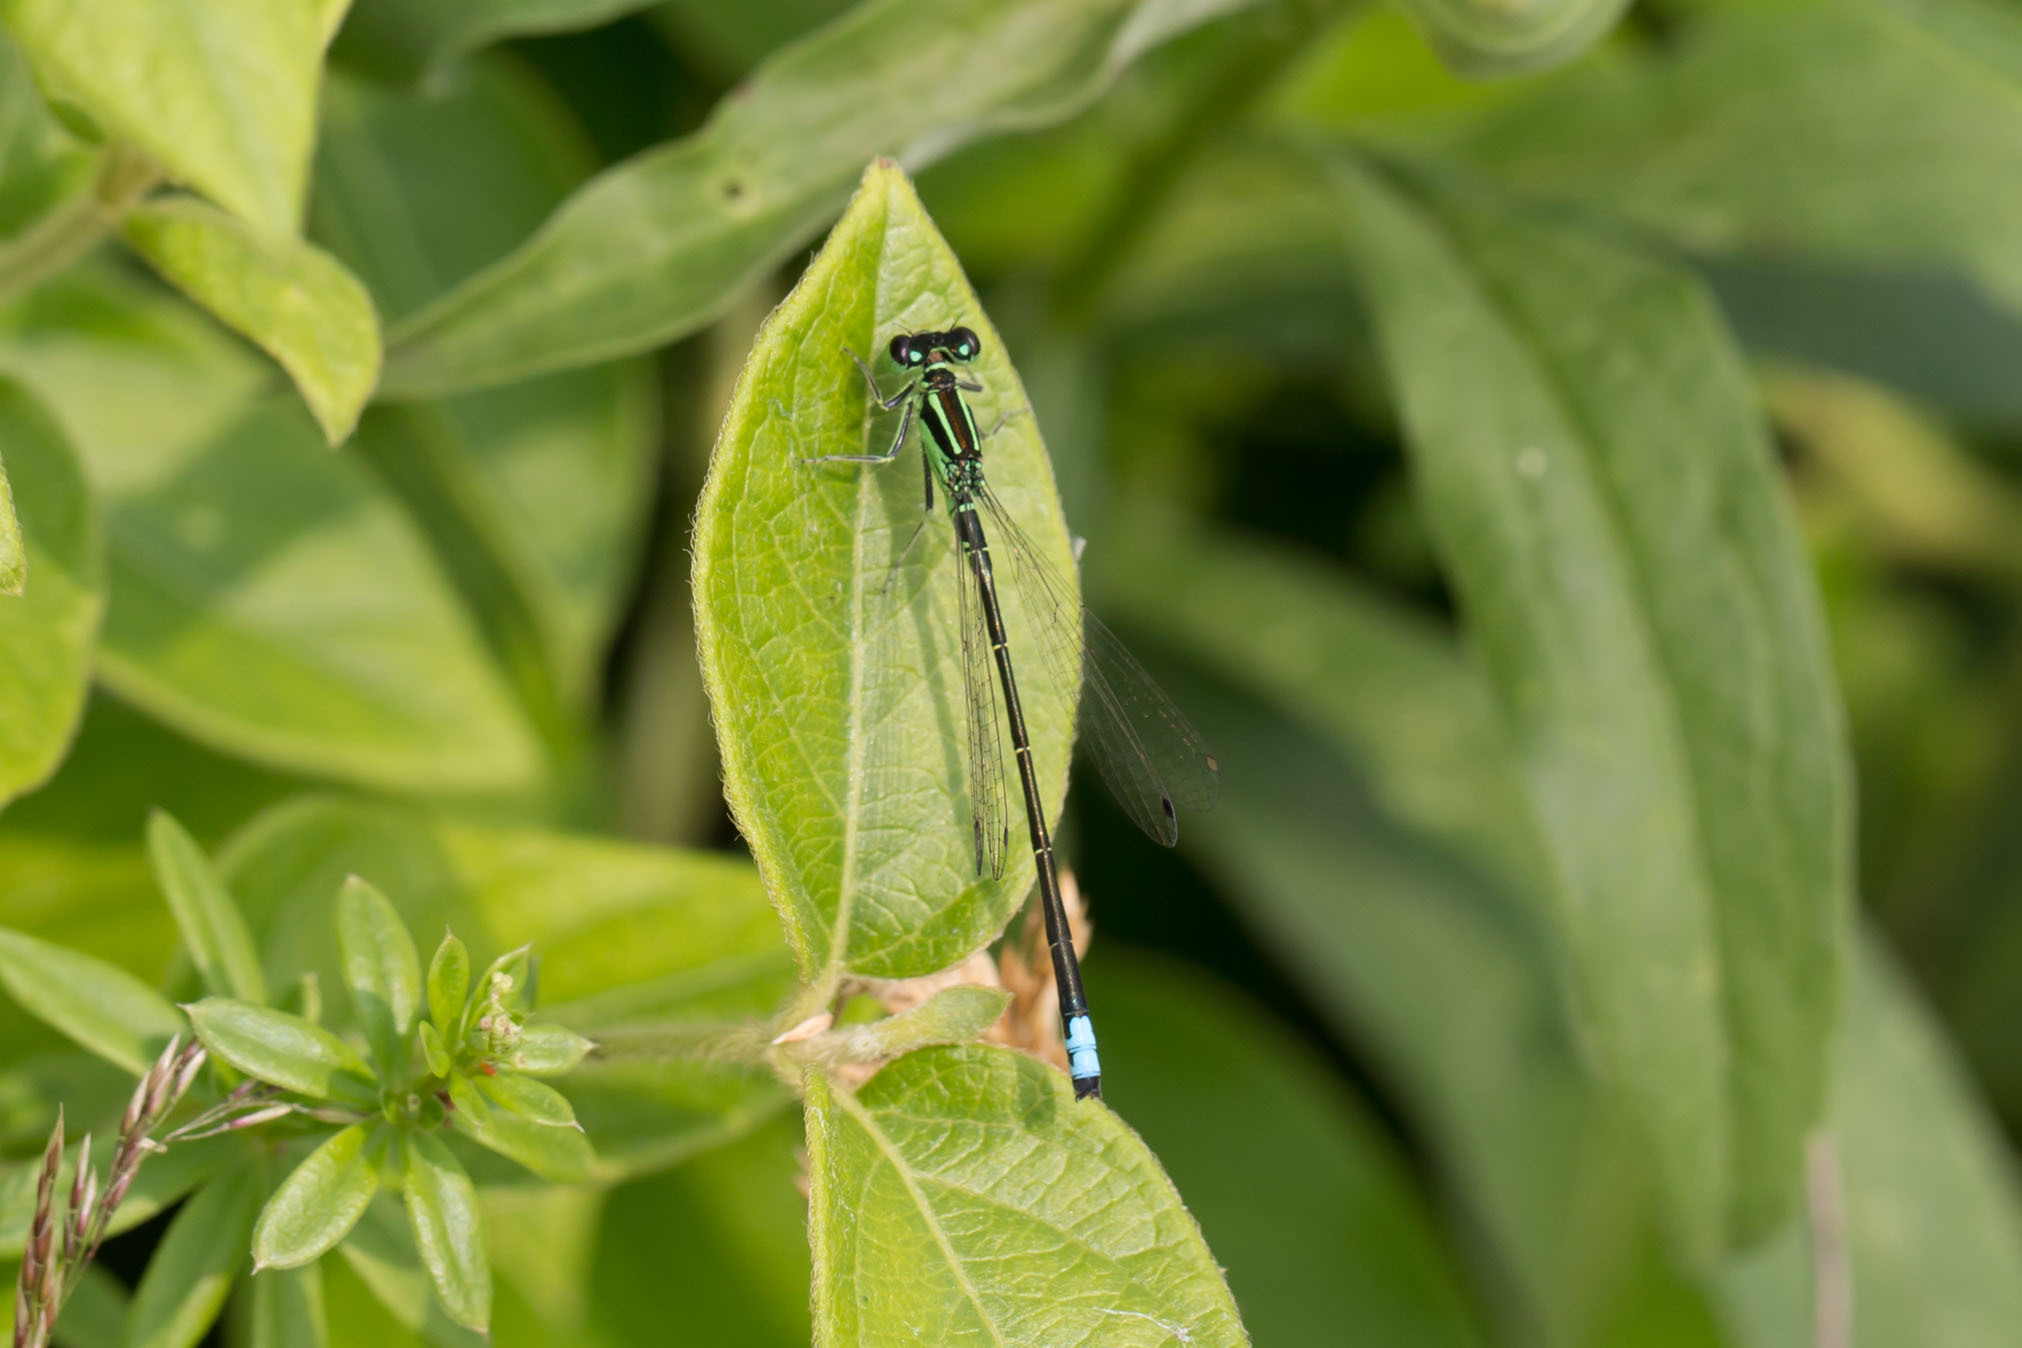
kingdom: Animalia
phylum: Arthropoda
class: Insecta
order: Odonata
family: Coenagrionidae
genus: Ischnura
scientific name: Ischnura verticalis
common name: Eastern forktail
